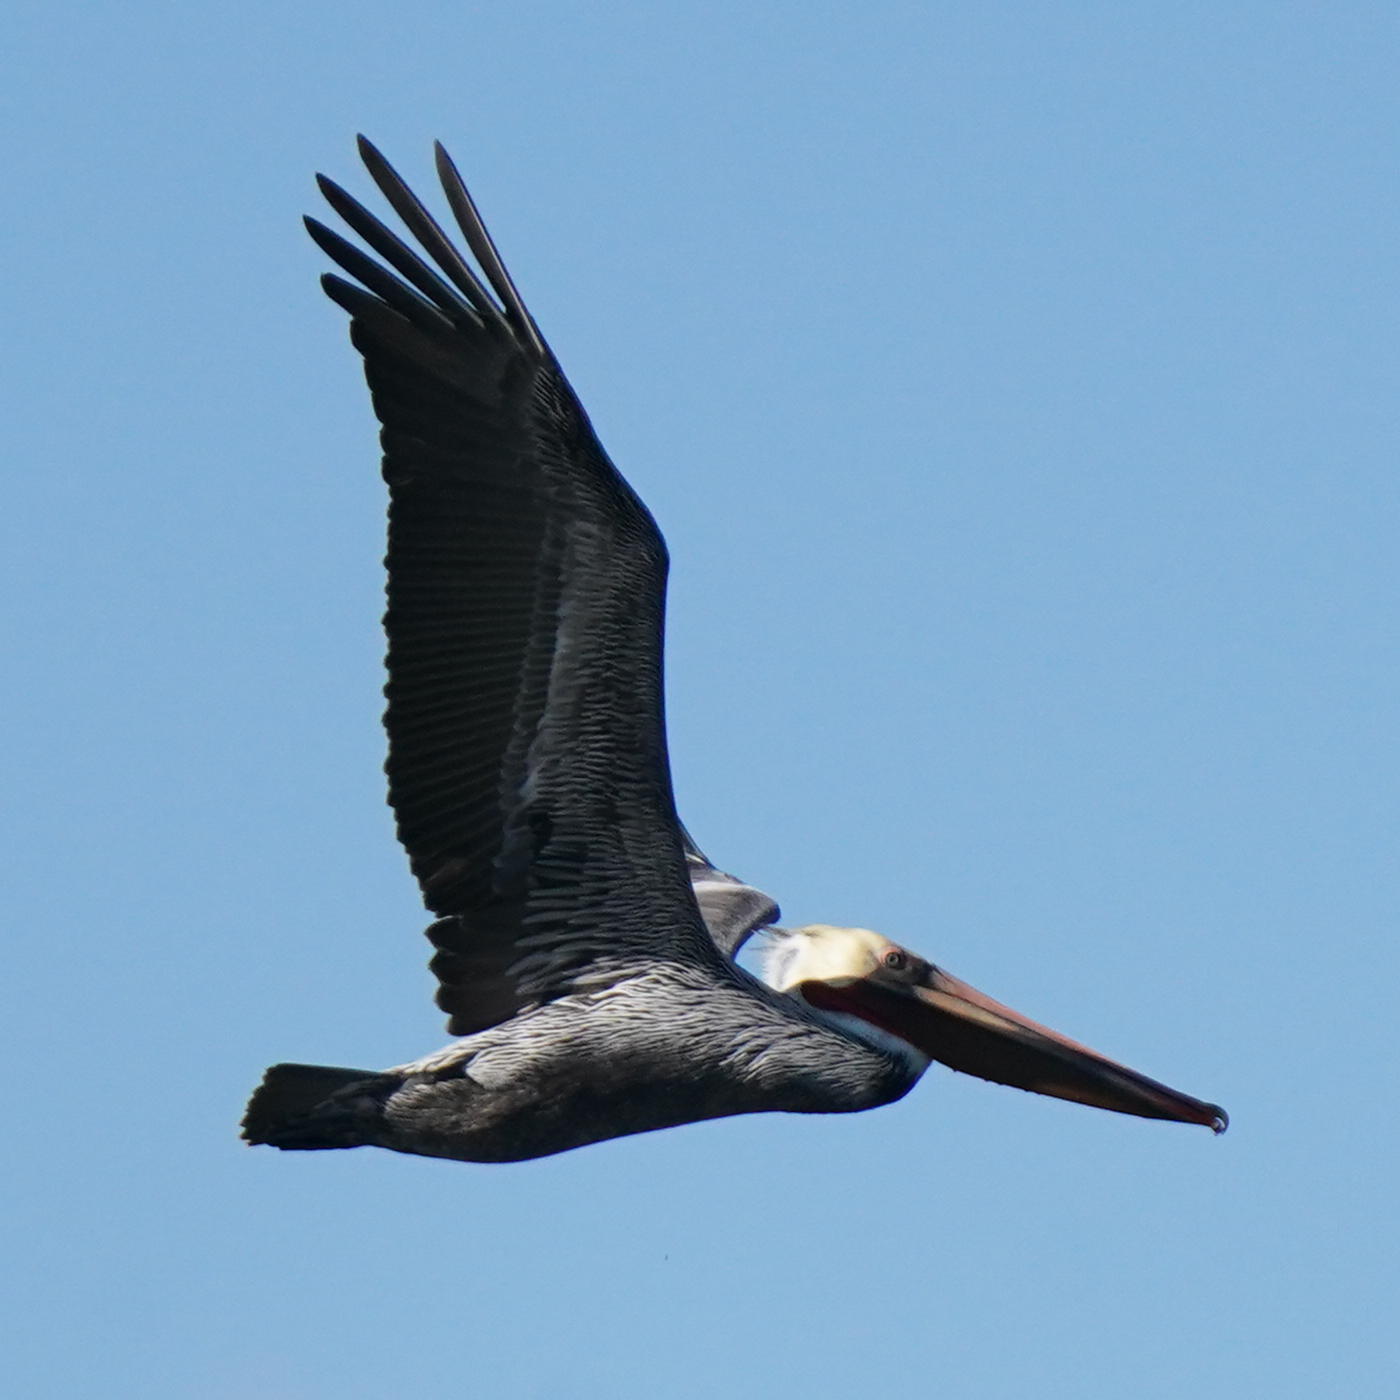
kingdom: Animalia
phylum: Chordata
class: Aves
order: Pelecaniformes
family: Pelecanidae
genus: Pelecanus
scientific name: Pelecanus occidentalis
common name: Brown pelican
